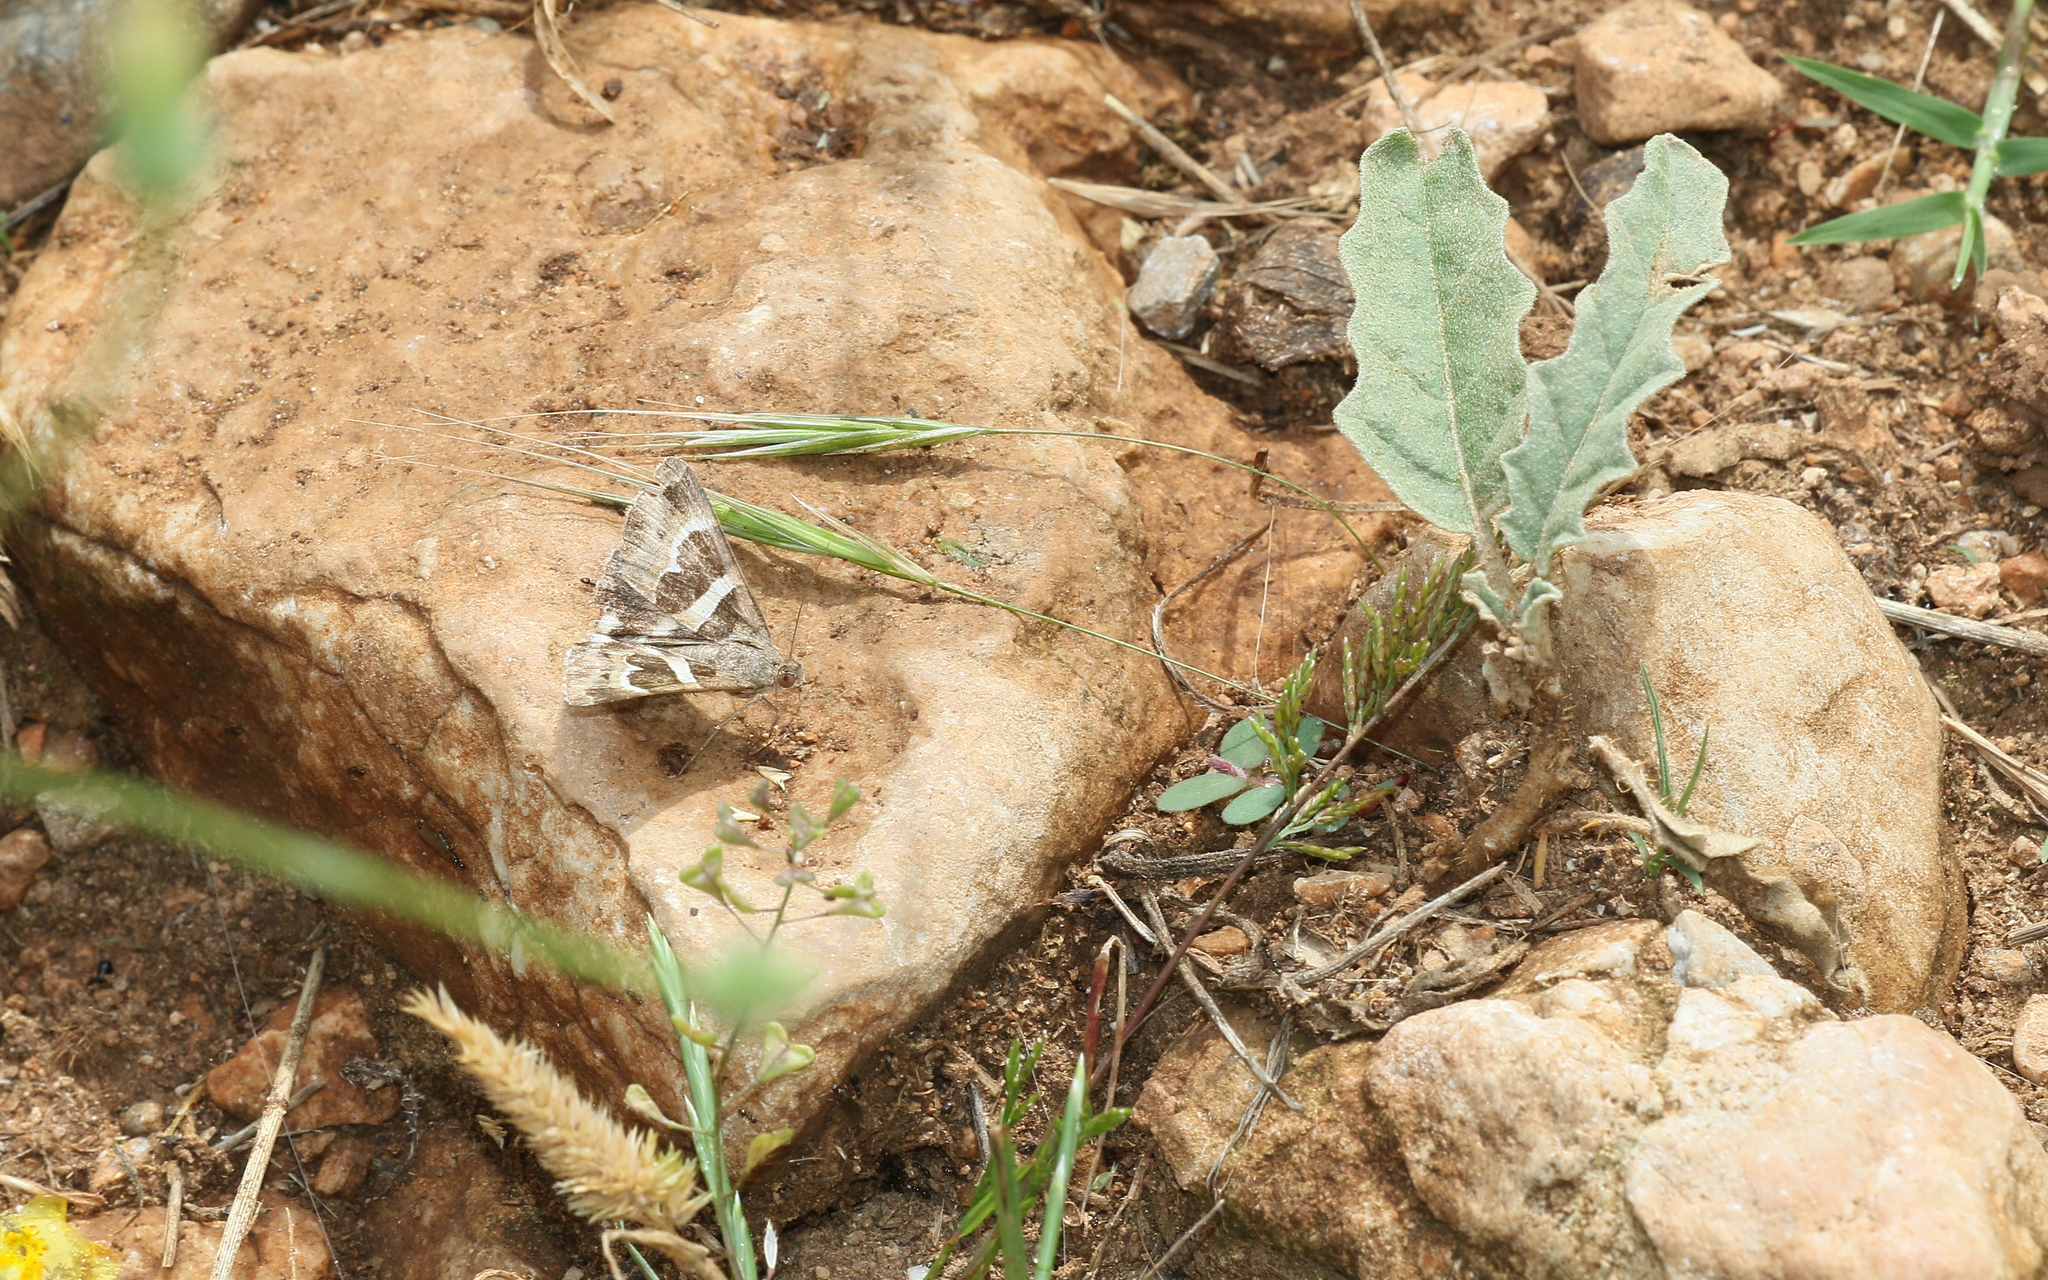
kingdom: Animalia
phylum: Arthropoda
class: Insecta
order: Lepidoptera
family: Erebidae
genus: Grammodes
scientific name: Grammodes stolida
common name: Geometrician
